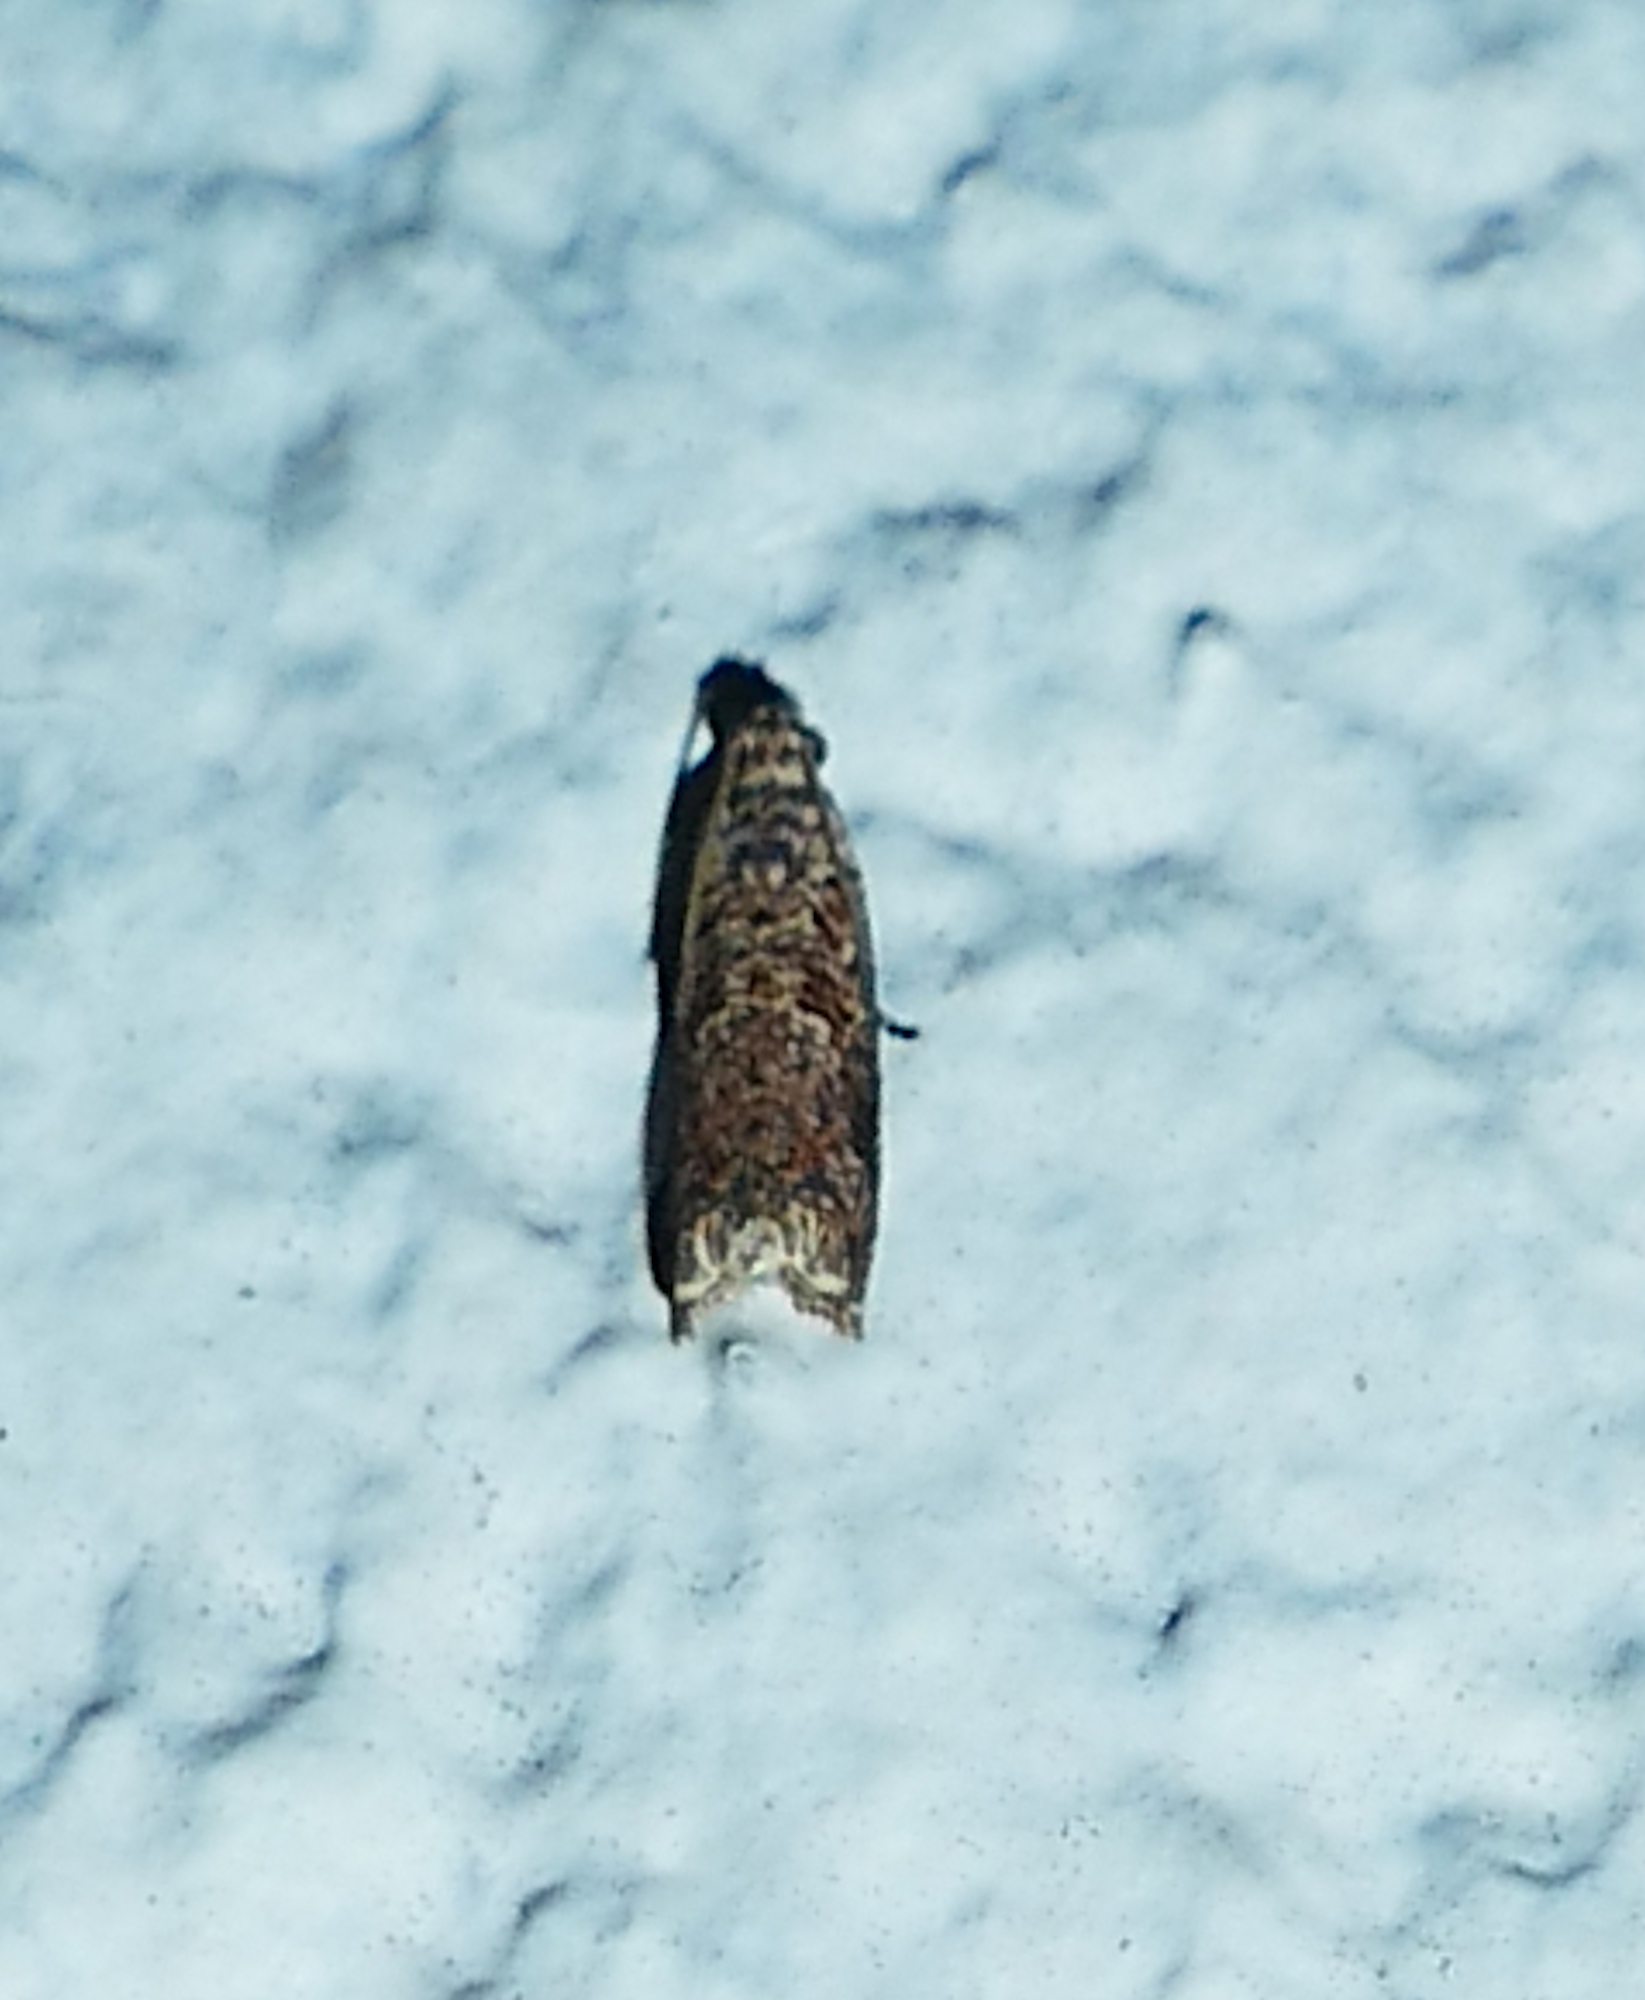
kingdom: Animalia
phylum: Arthropoda
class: Insecta
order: Lepidoptera
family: Tortricidae
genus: Episimus
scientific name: Episimus argutana
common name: Sumac leaftier moth
